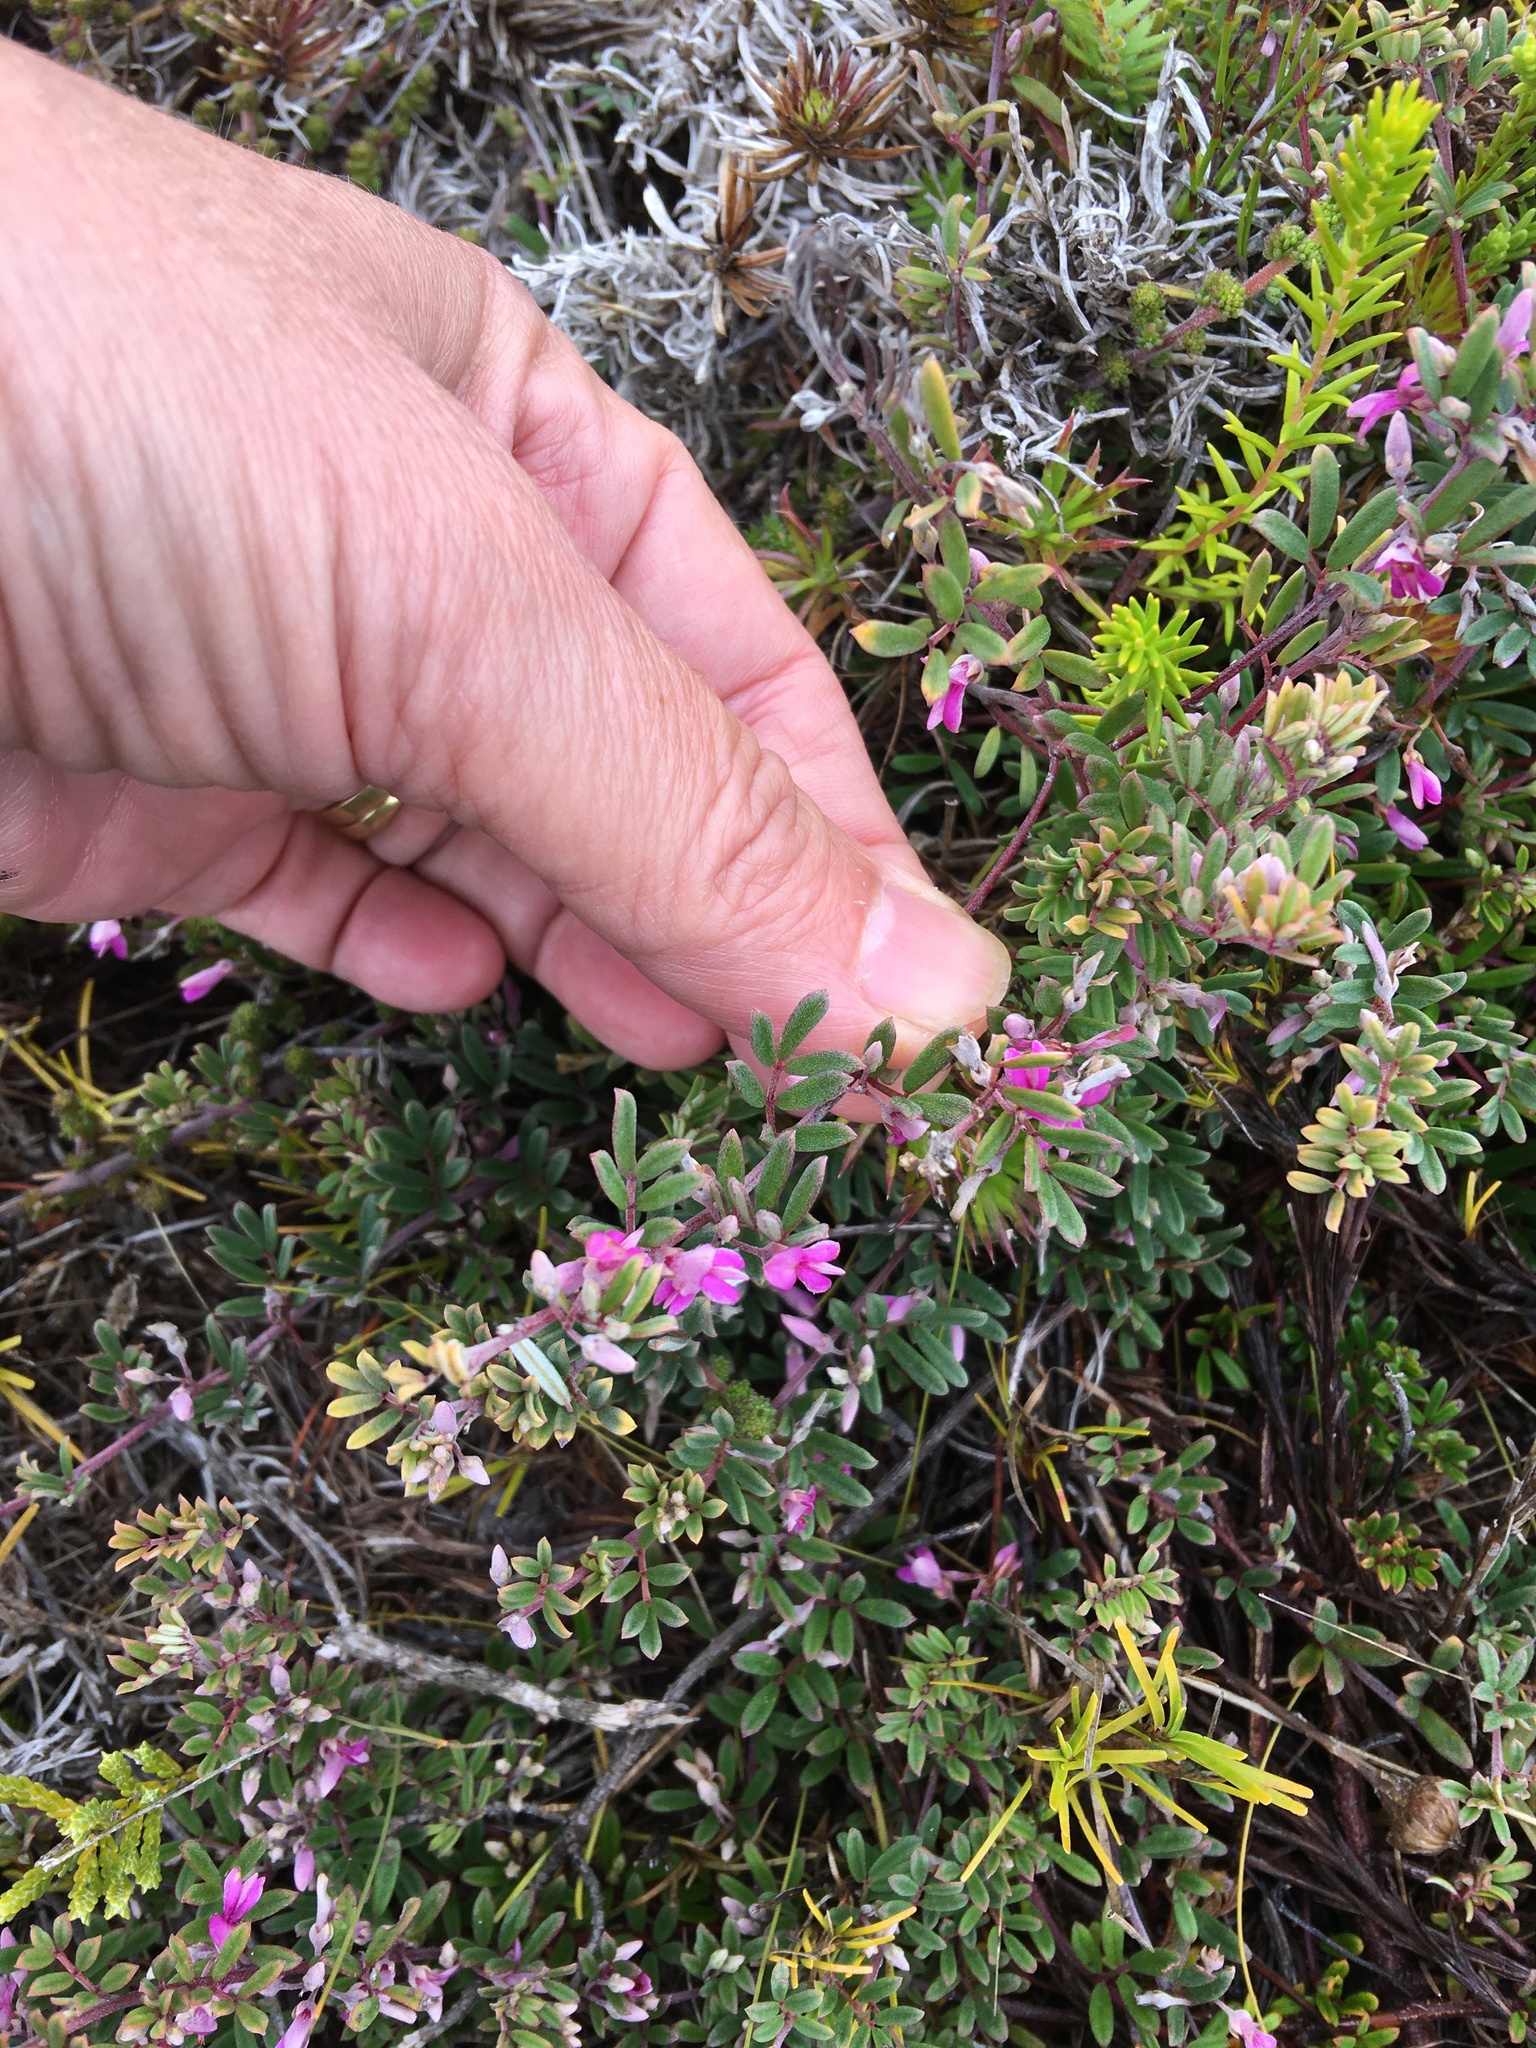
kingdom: Plantae
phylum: Tracheophyta
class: Magnoliopsida
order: Fabales
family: Fabaceae
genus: Indigofera
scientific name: Indigofera
